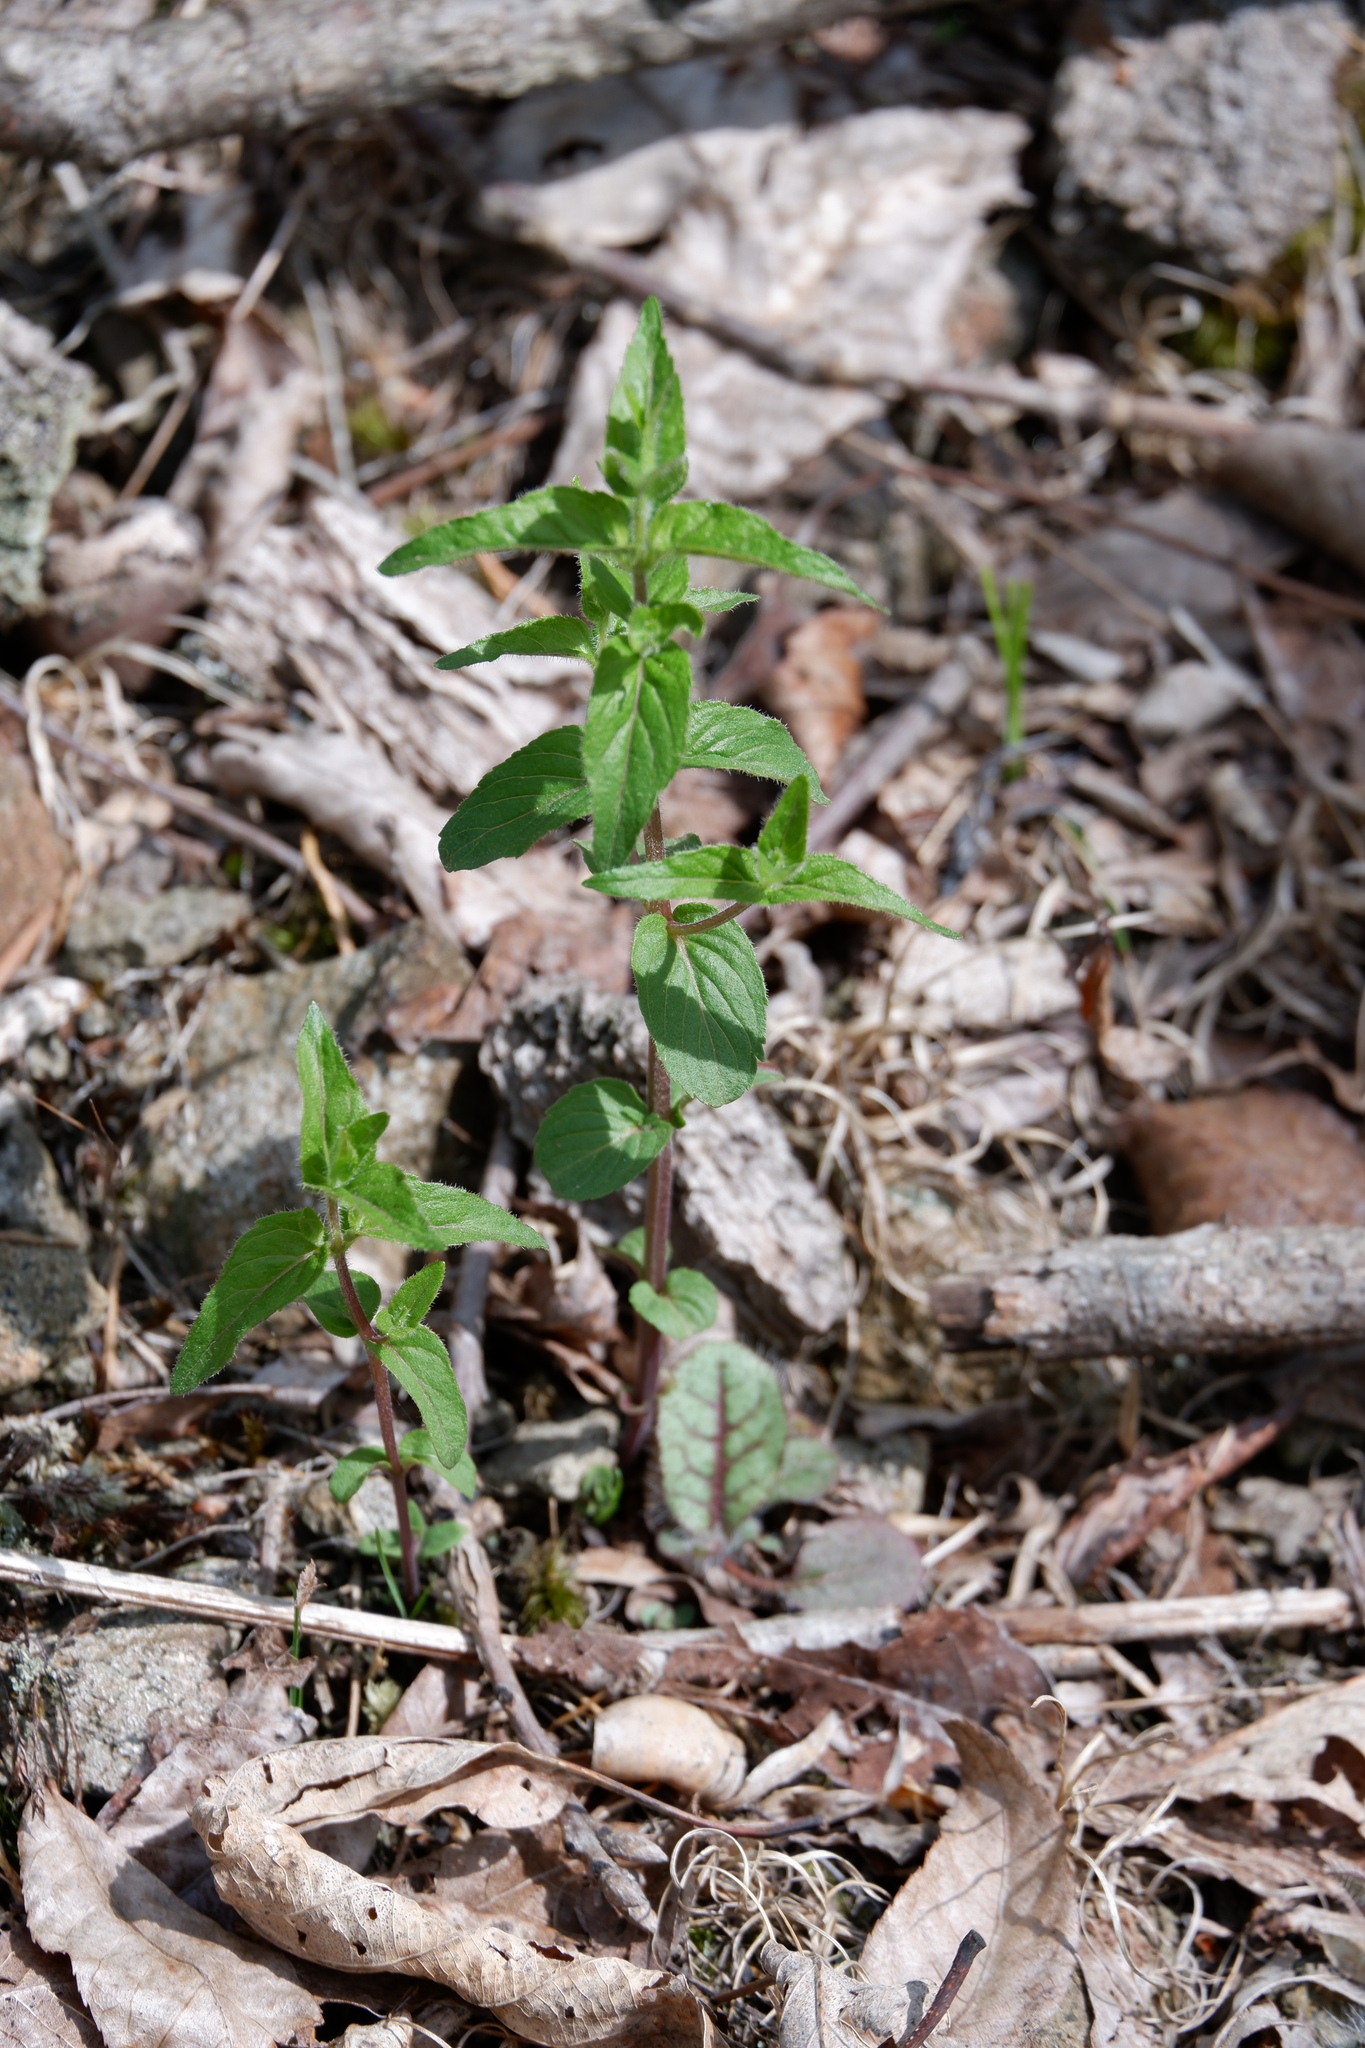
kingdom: Plantae
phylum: Tracheophyta
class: Magnoliopsida
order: Lamiales
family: Lamiaceae
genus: Cunila
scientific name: Cunila origanoides
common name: American dittany
